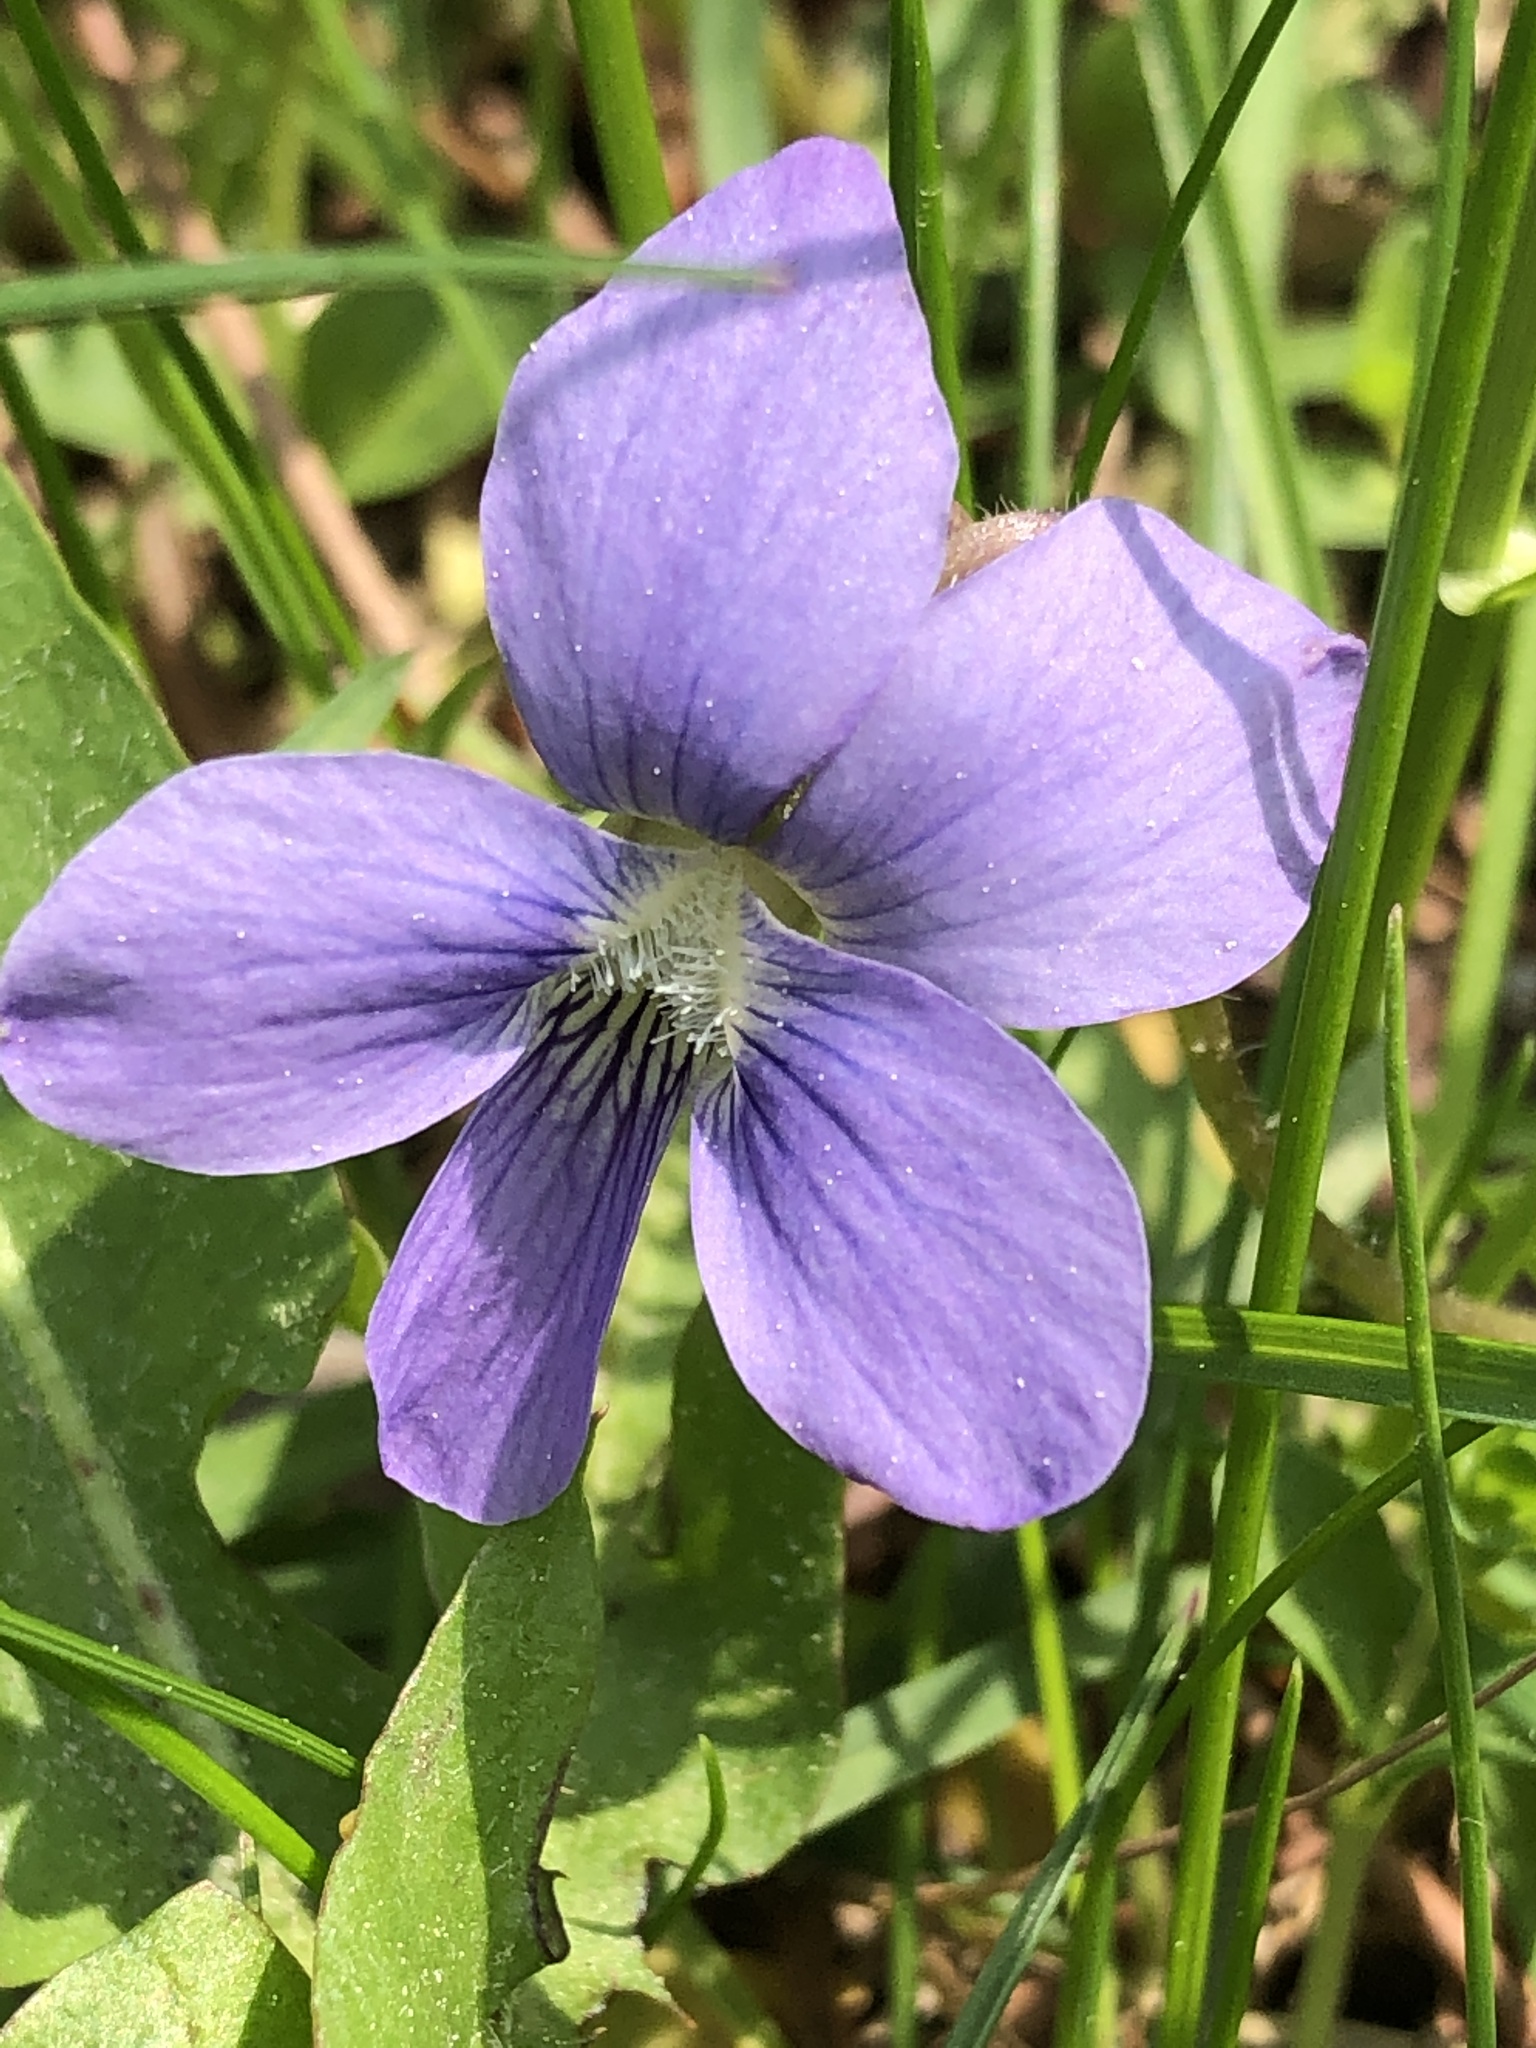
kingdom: Plantae
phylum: Tracheophyta
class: Magnoliopsida
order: Malpighiales
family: Violaceae
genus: Viola
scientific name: Viola cucullata
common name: Marsh blue violet
